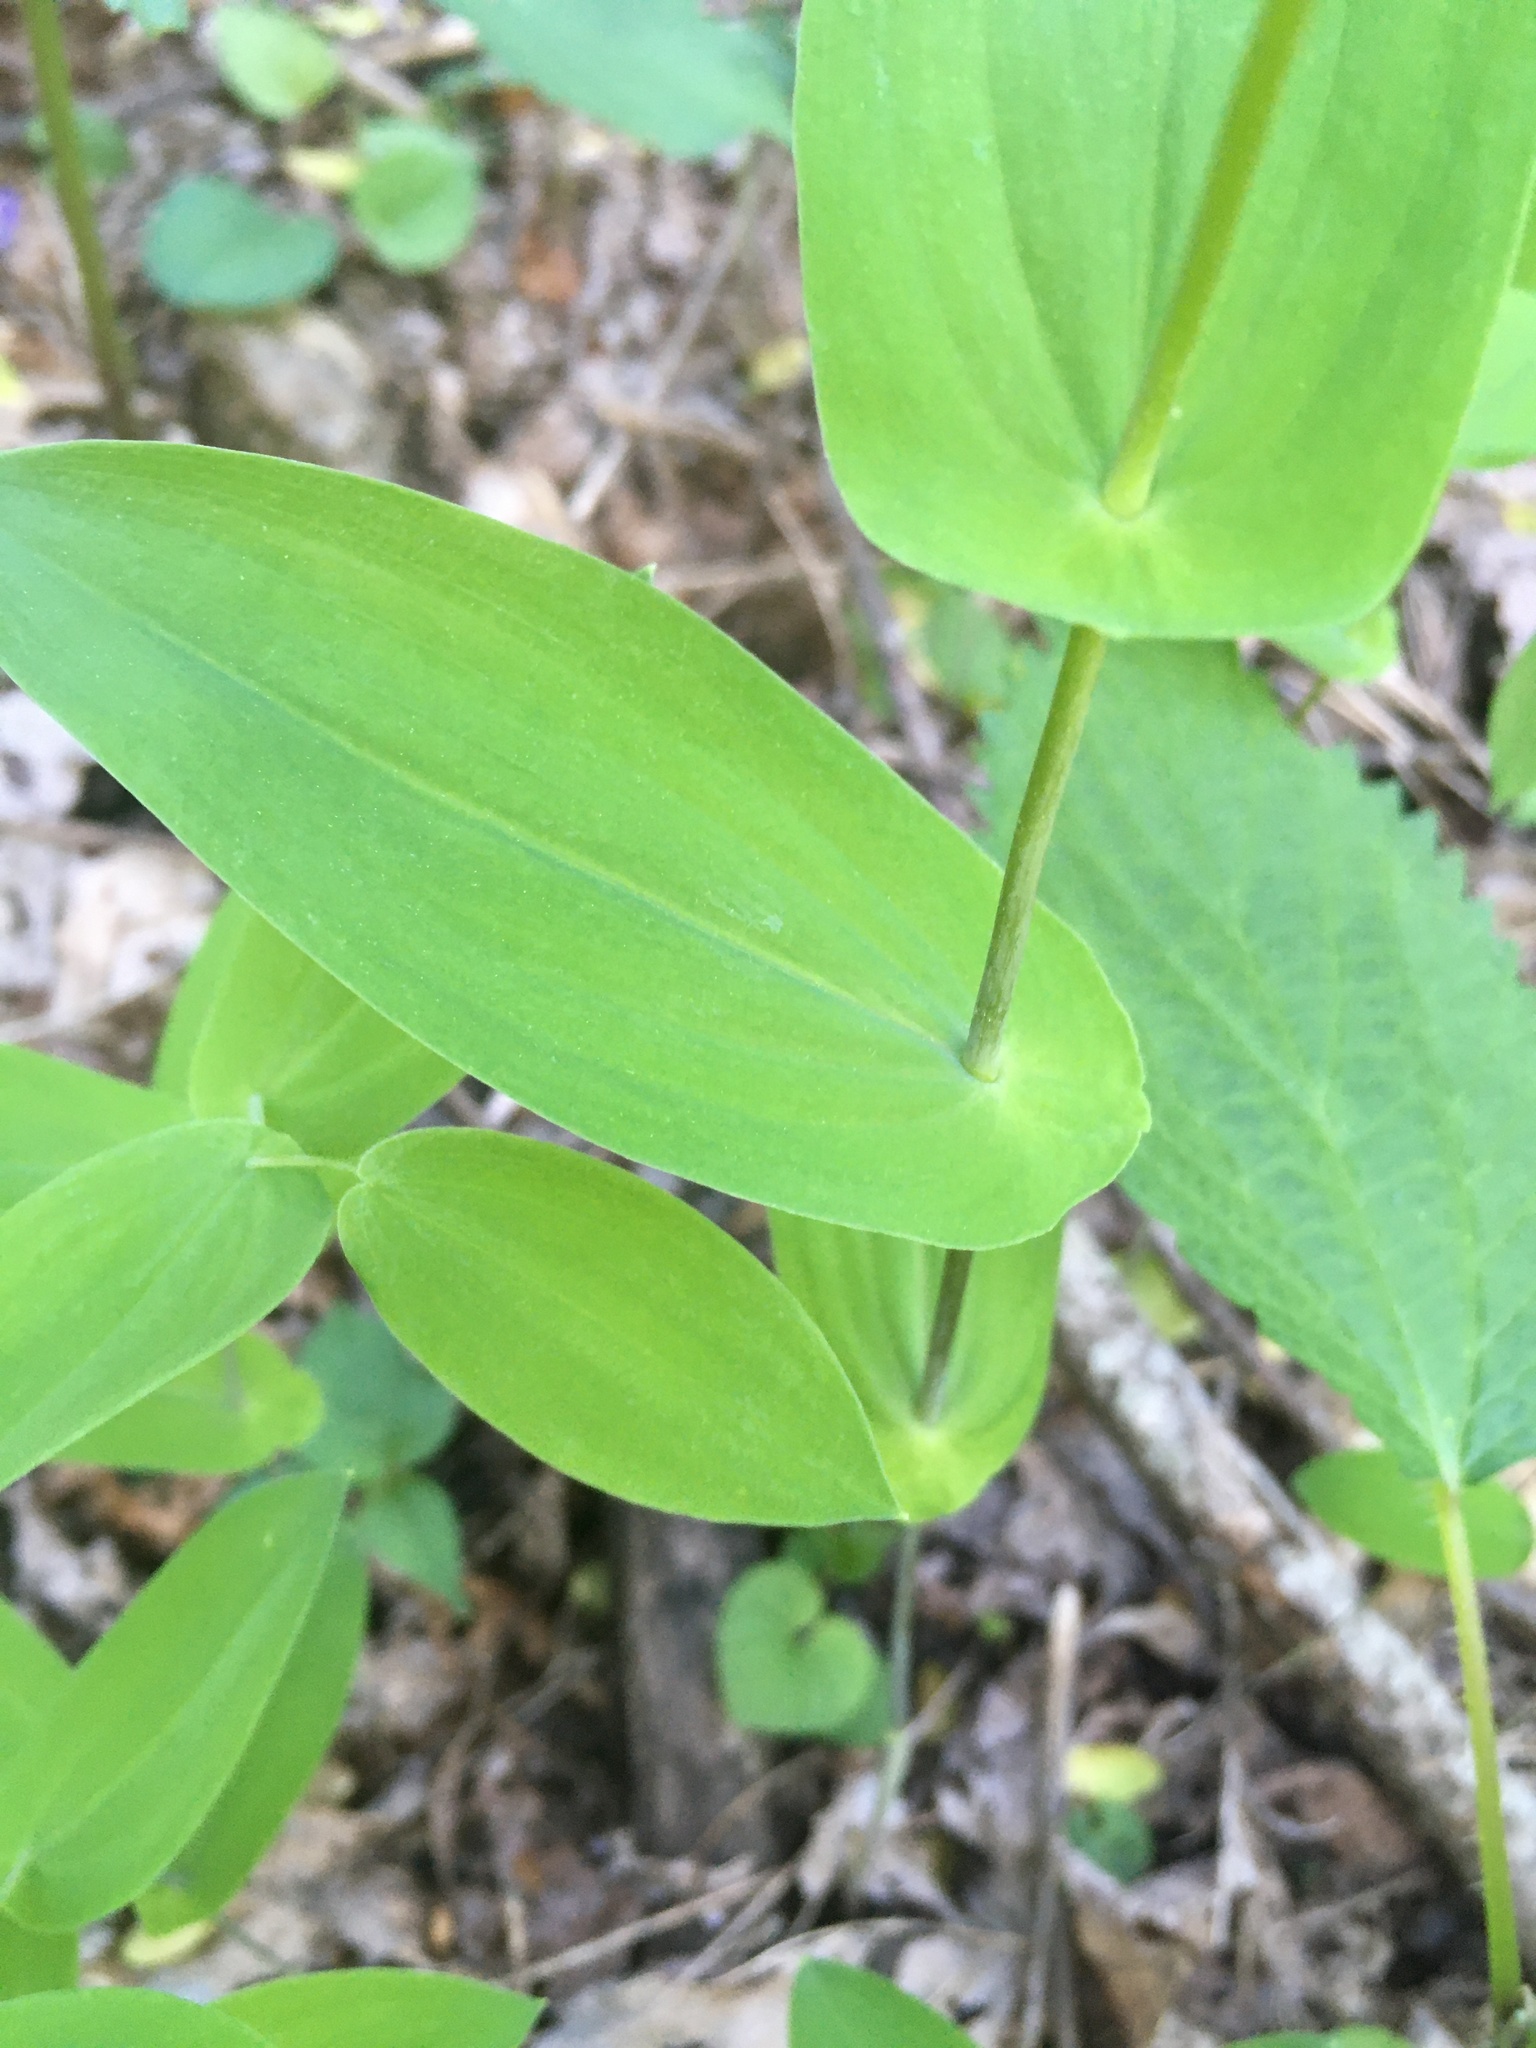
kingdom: Plantae
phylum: Tracheophyta
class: Liliopsida
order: Liliales
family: Colchicaceae
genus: Uvularia
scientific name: Uvularia perfoliata
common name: Perfoliate bellwort
